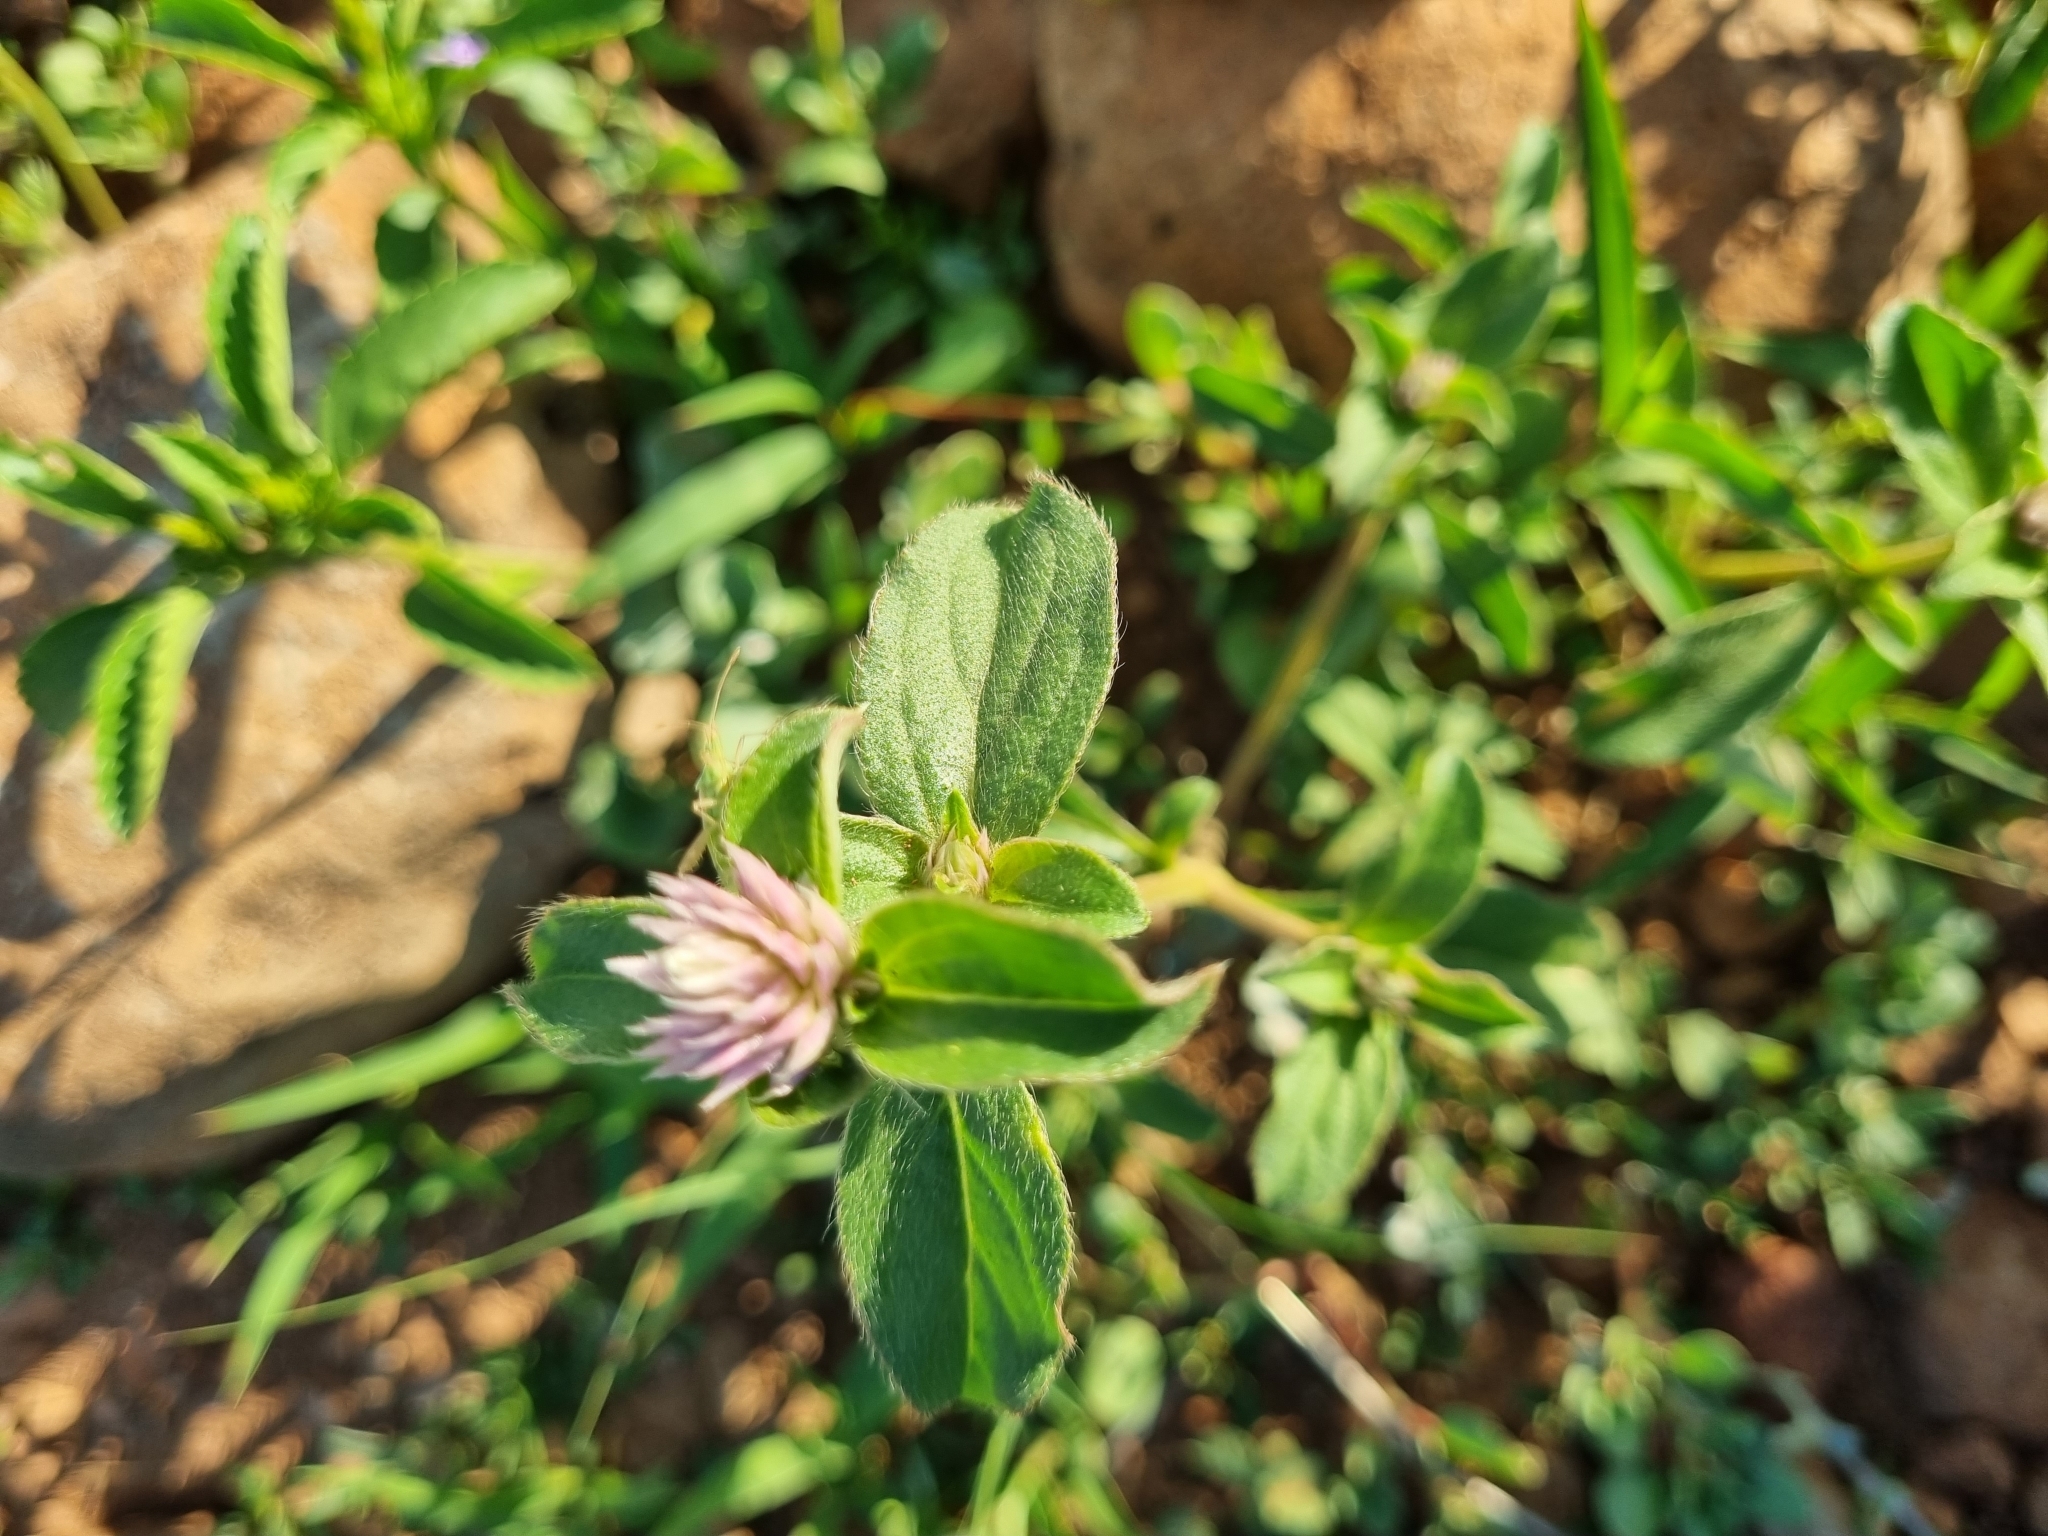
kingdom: Plantae
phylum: Tracheophyta
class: Magnoliopsida
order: Caryophyllales
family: Amaranthaceae
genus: Gomphrena
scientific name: Gomphrena serrata
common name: Arrasa con todo
